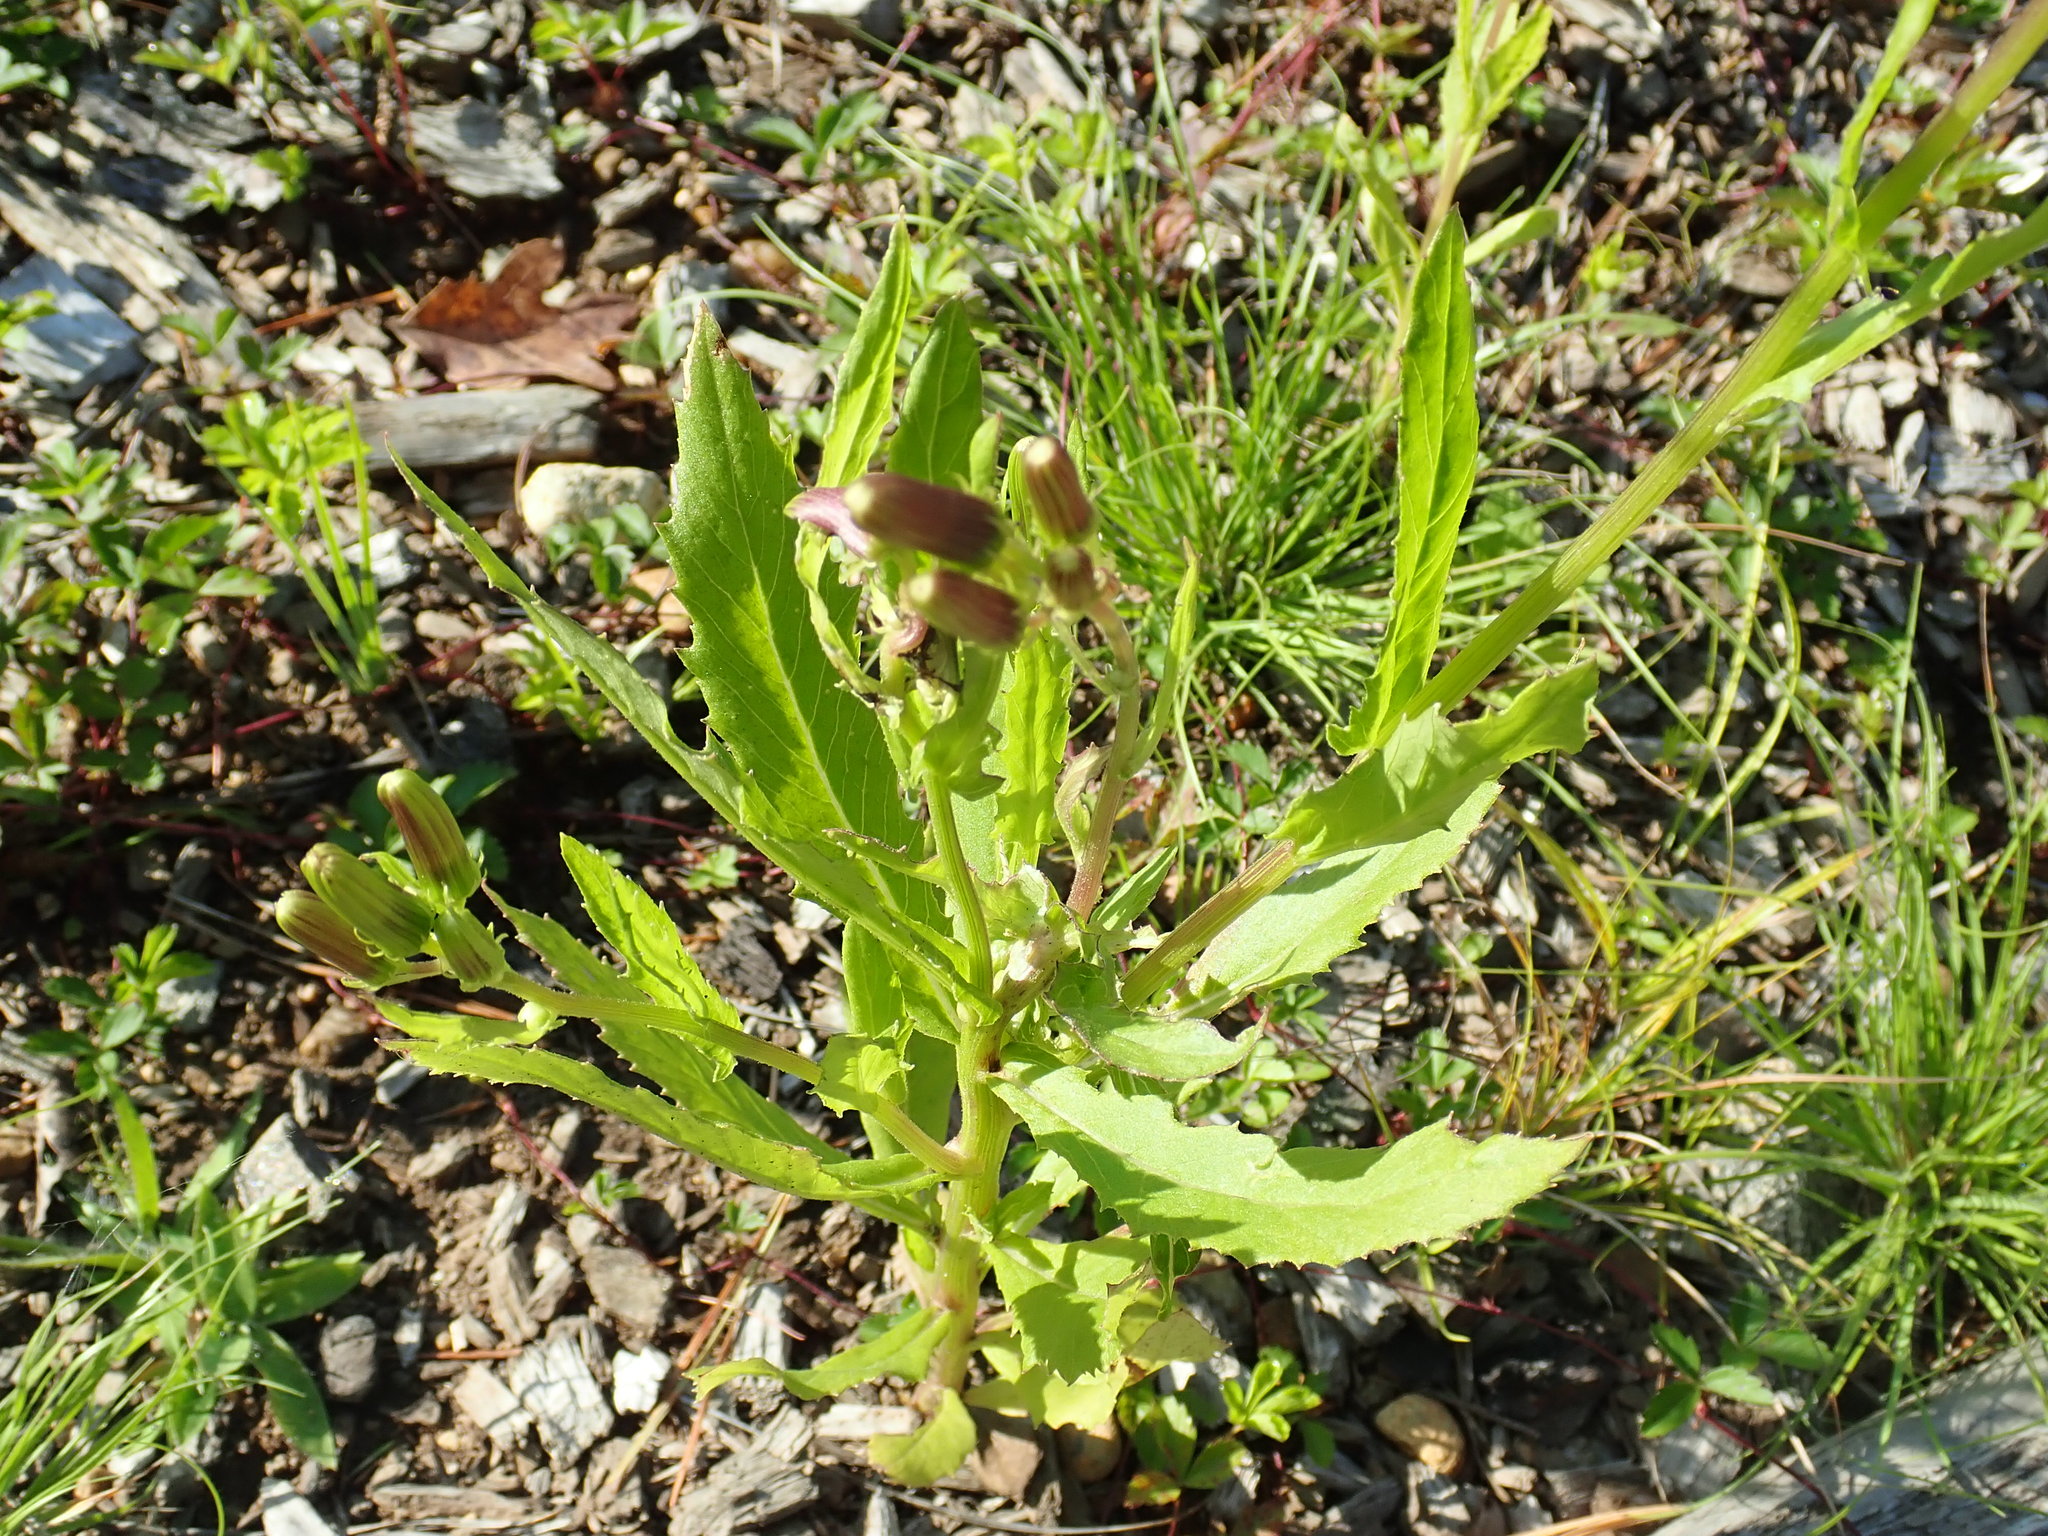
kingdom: Plantae
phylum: Tracheophyta
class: Magnoliopsida
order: Asterales
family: Asteraceae
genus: Erechtites
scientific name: Erechtites hieraciifolius
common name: American burnweed
